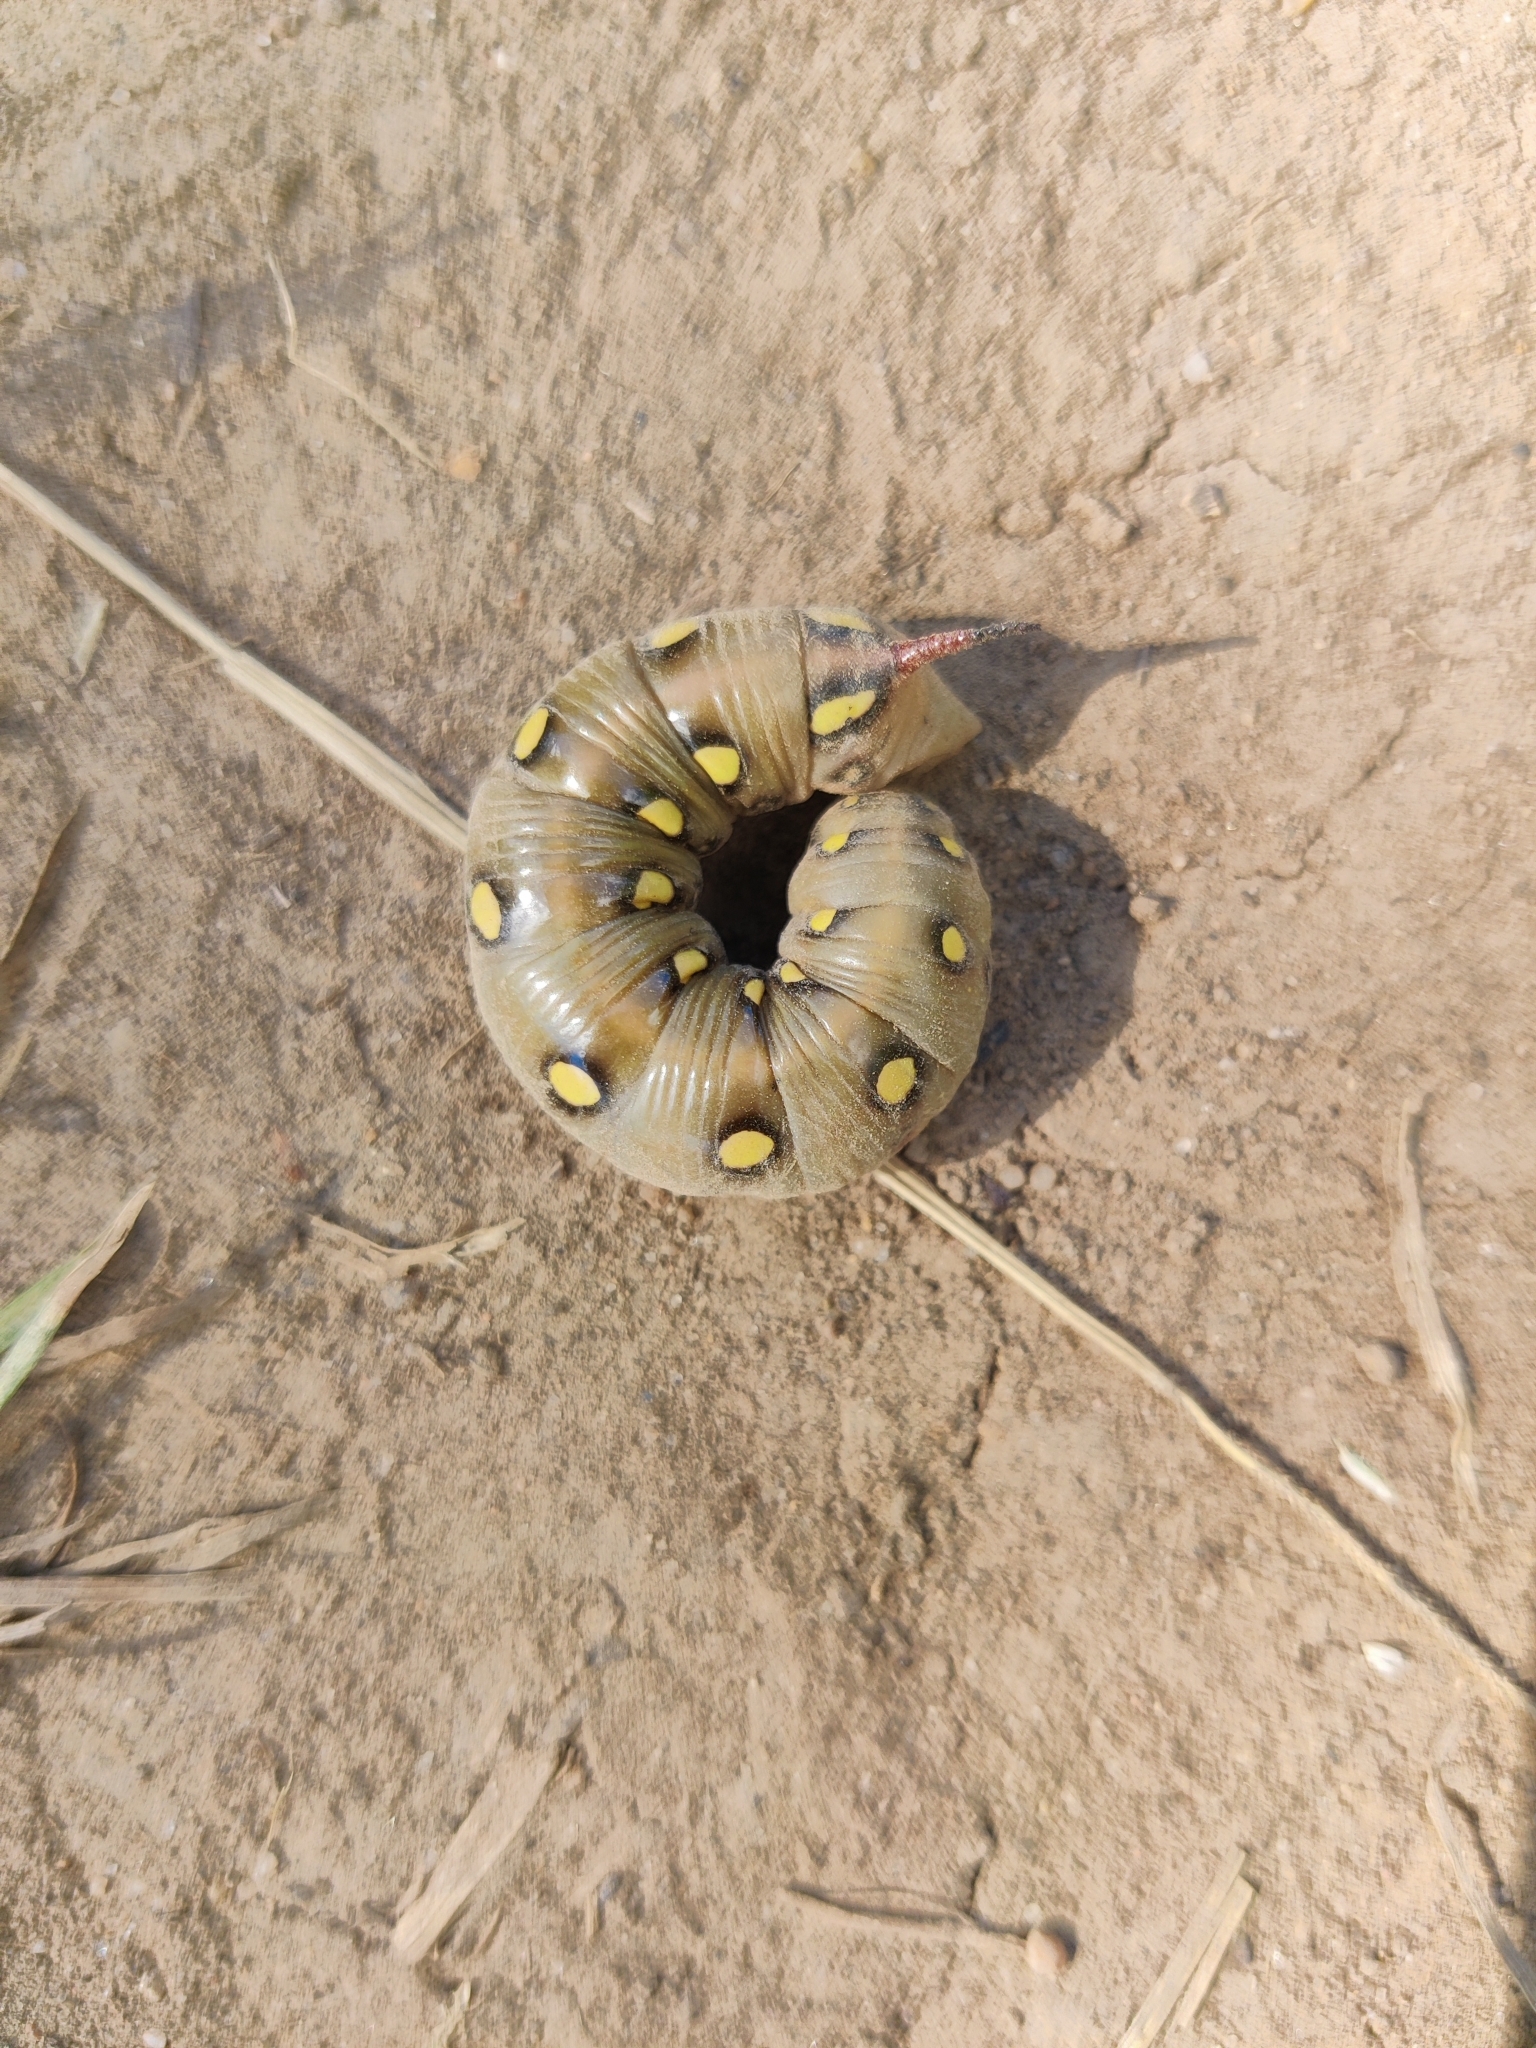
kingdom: Animalia
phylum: Arthropoda
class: Insecta
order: Lepidoptera
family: Sphingidae
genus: Hyles
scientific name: Hyles gallii
